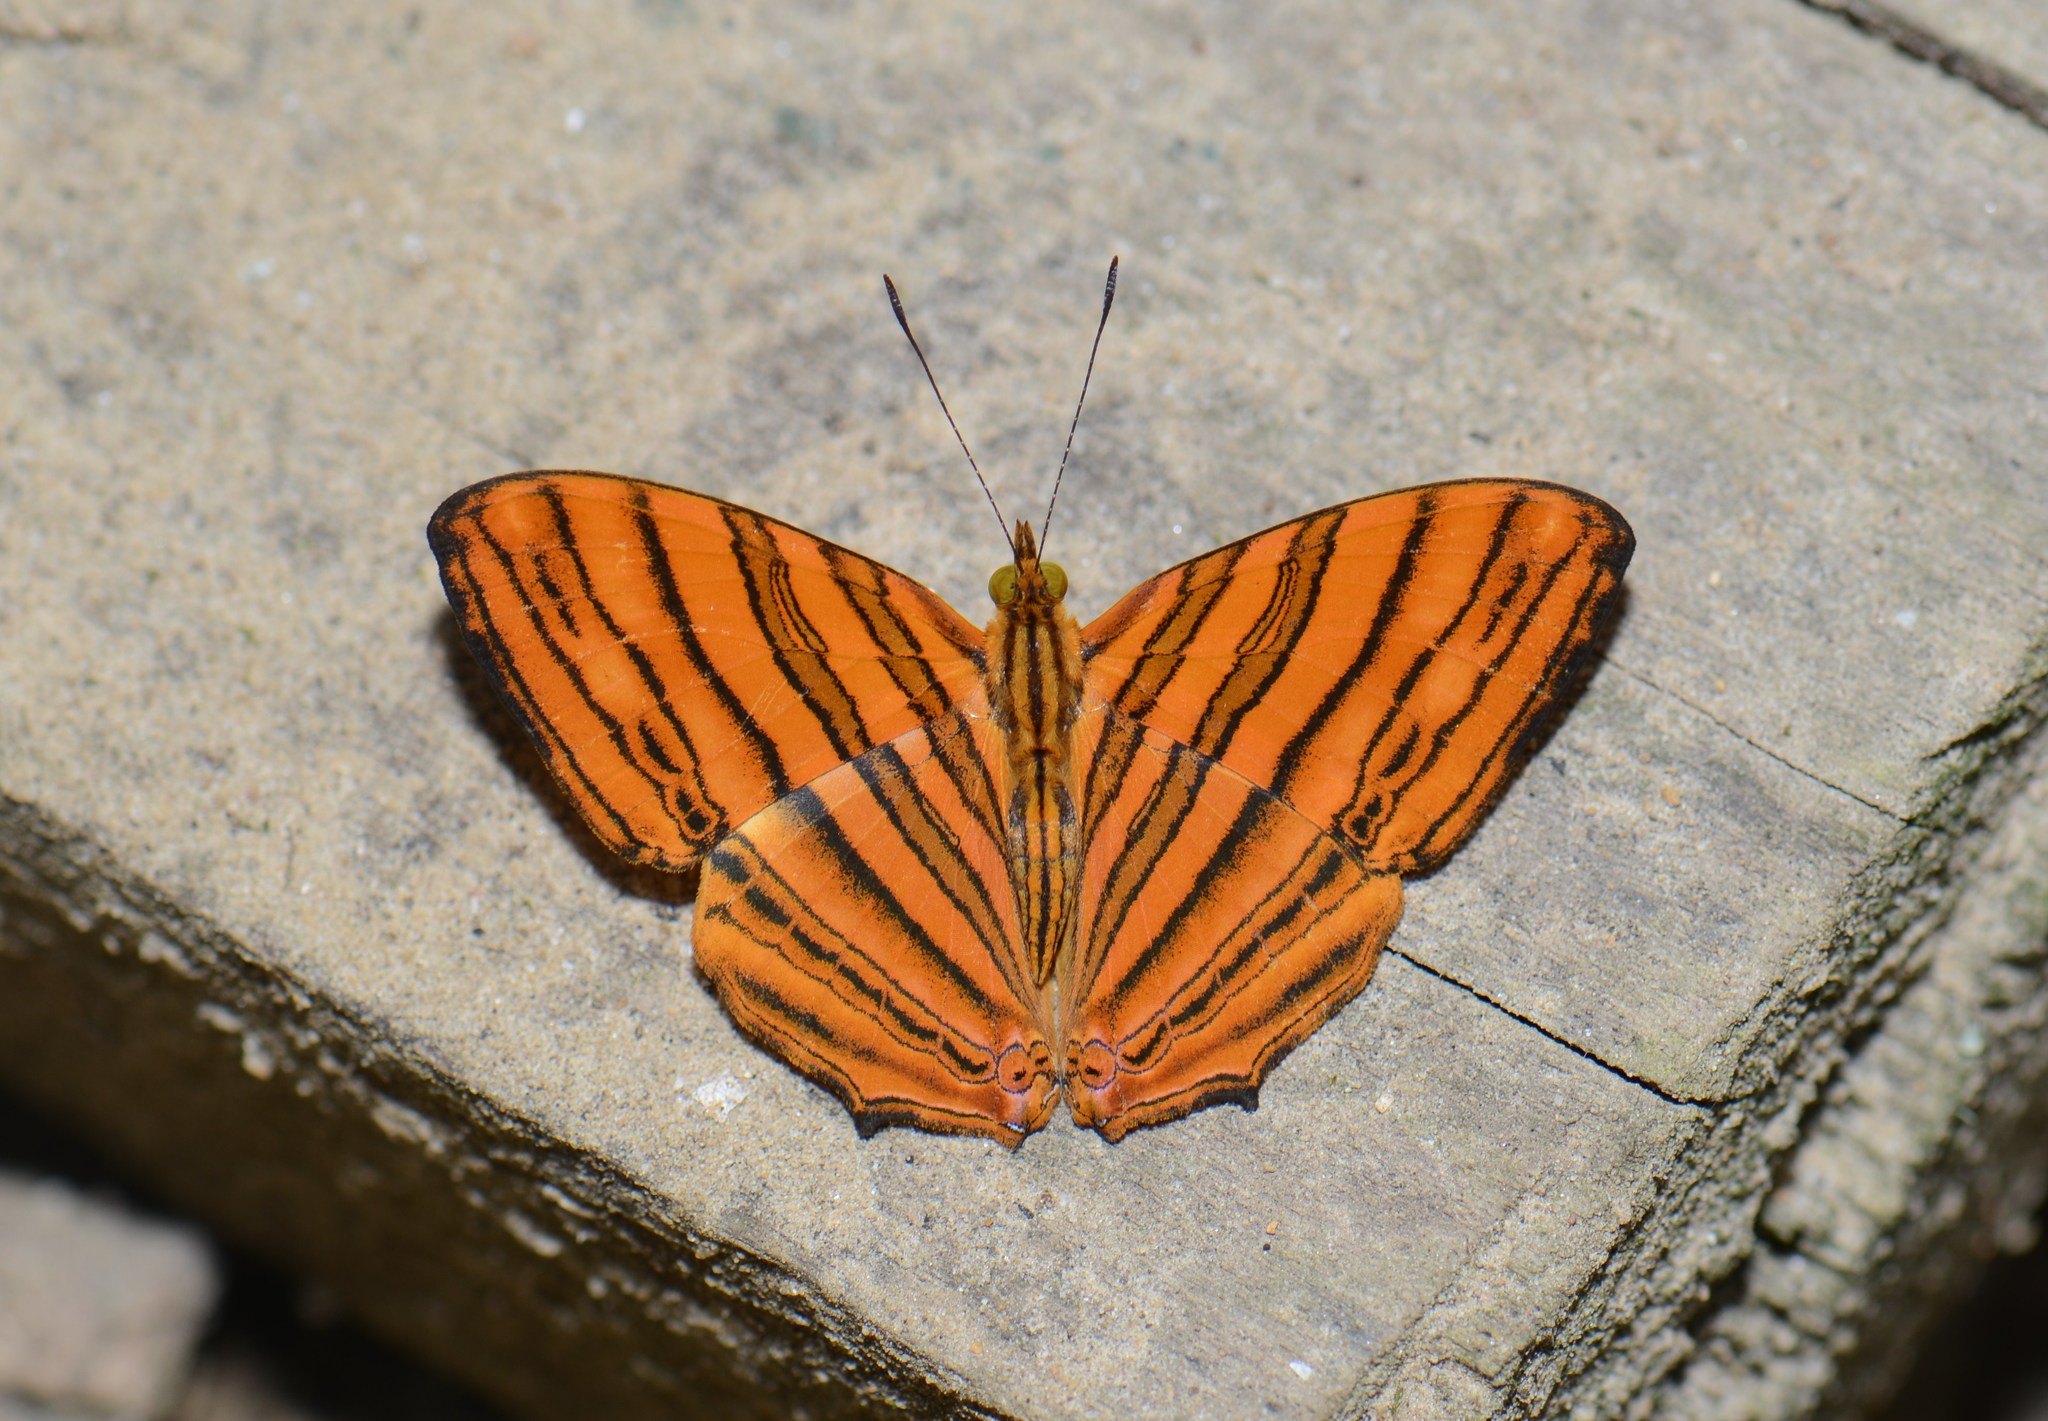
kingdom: Animalia
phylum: Arthropoda
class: Insecta
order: Lepidoptera
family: Nymphalidae
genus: Chersonesia
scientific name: Chersonesia risa
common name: Common maplet
